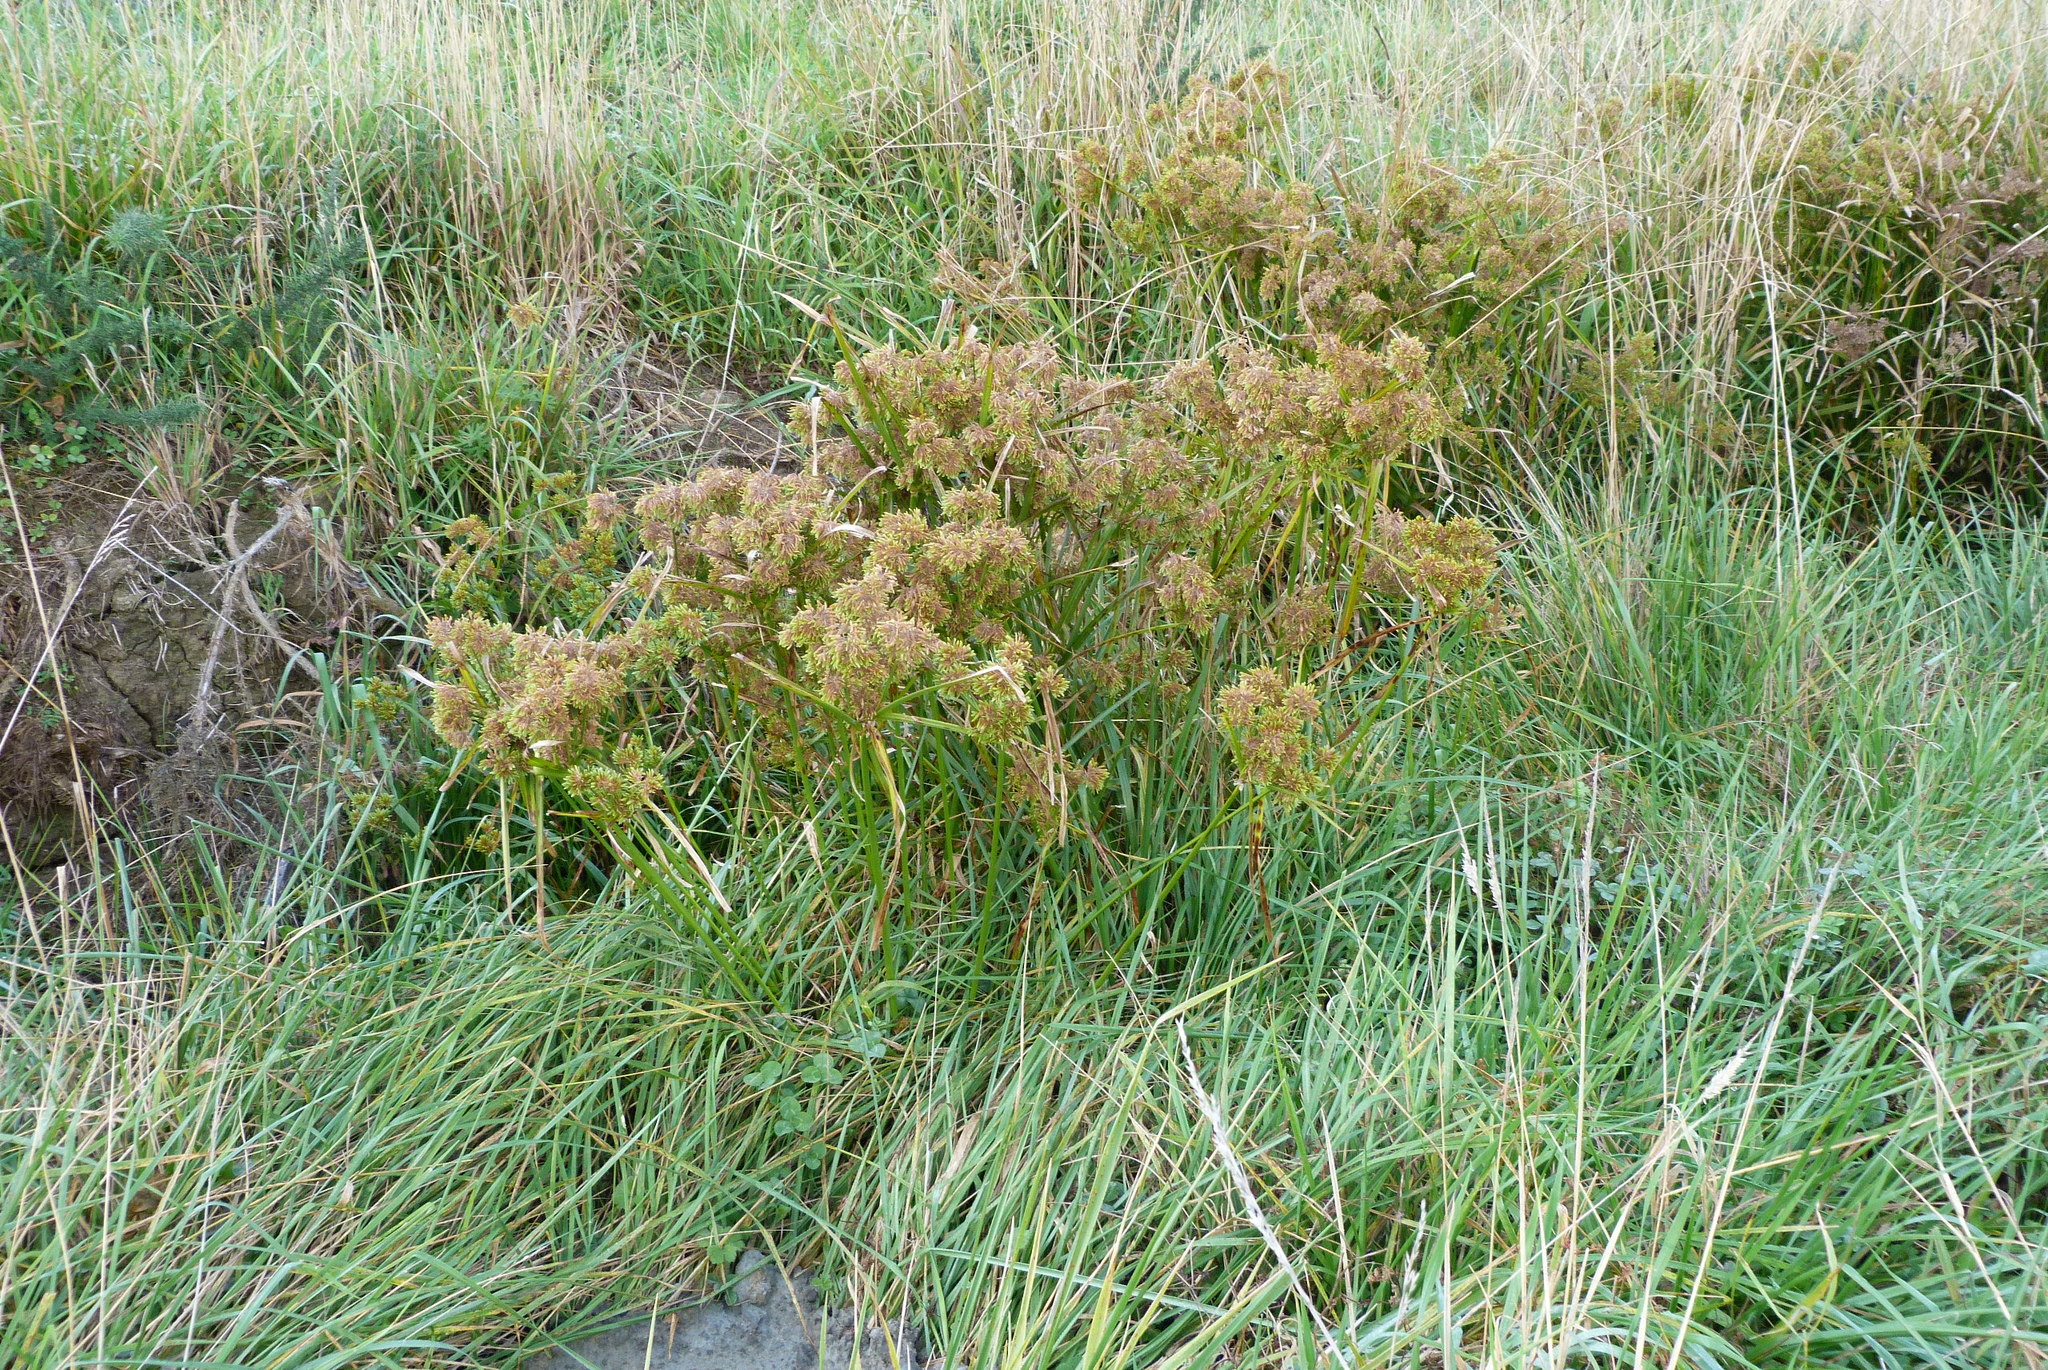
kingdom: Plantae
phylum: Tracheophyta
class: Liliopsida
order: Poales
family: Cyperaceae
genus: Cyperus
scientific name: Cyperus eragrostis
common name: Tall flatsedge
